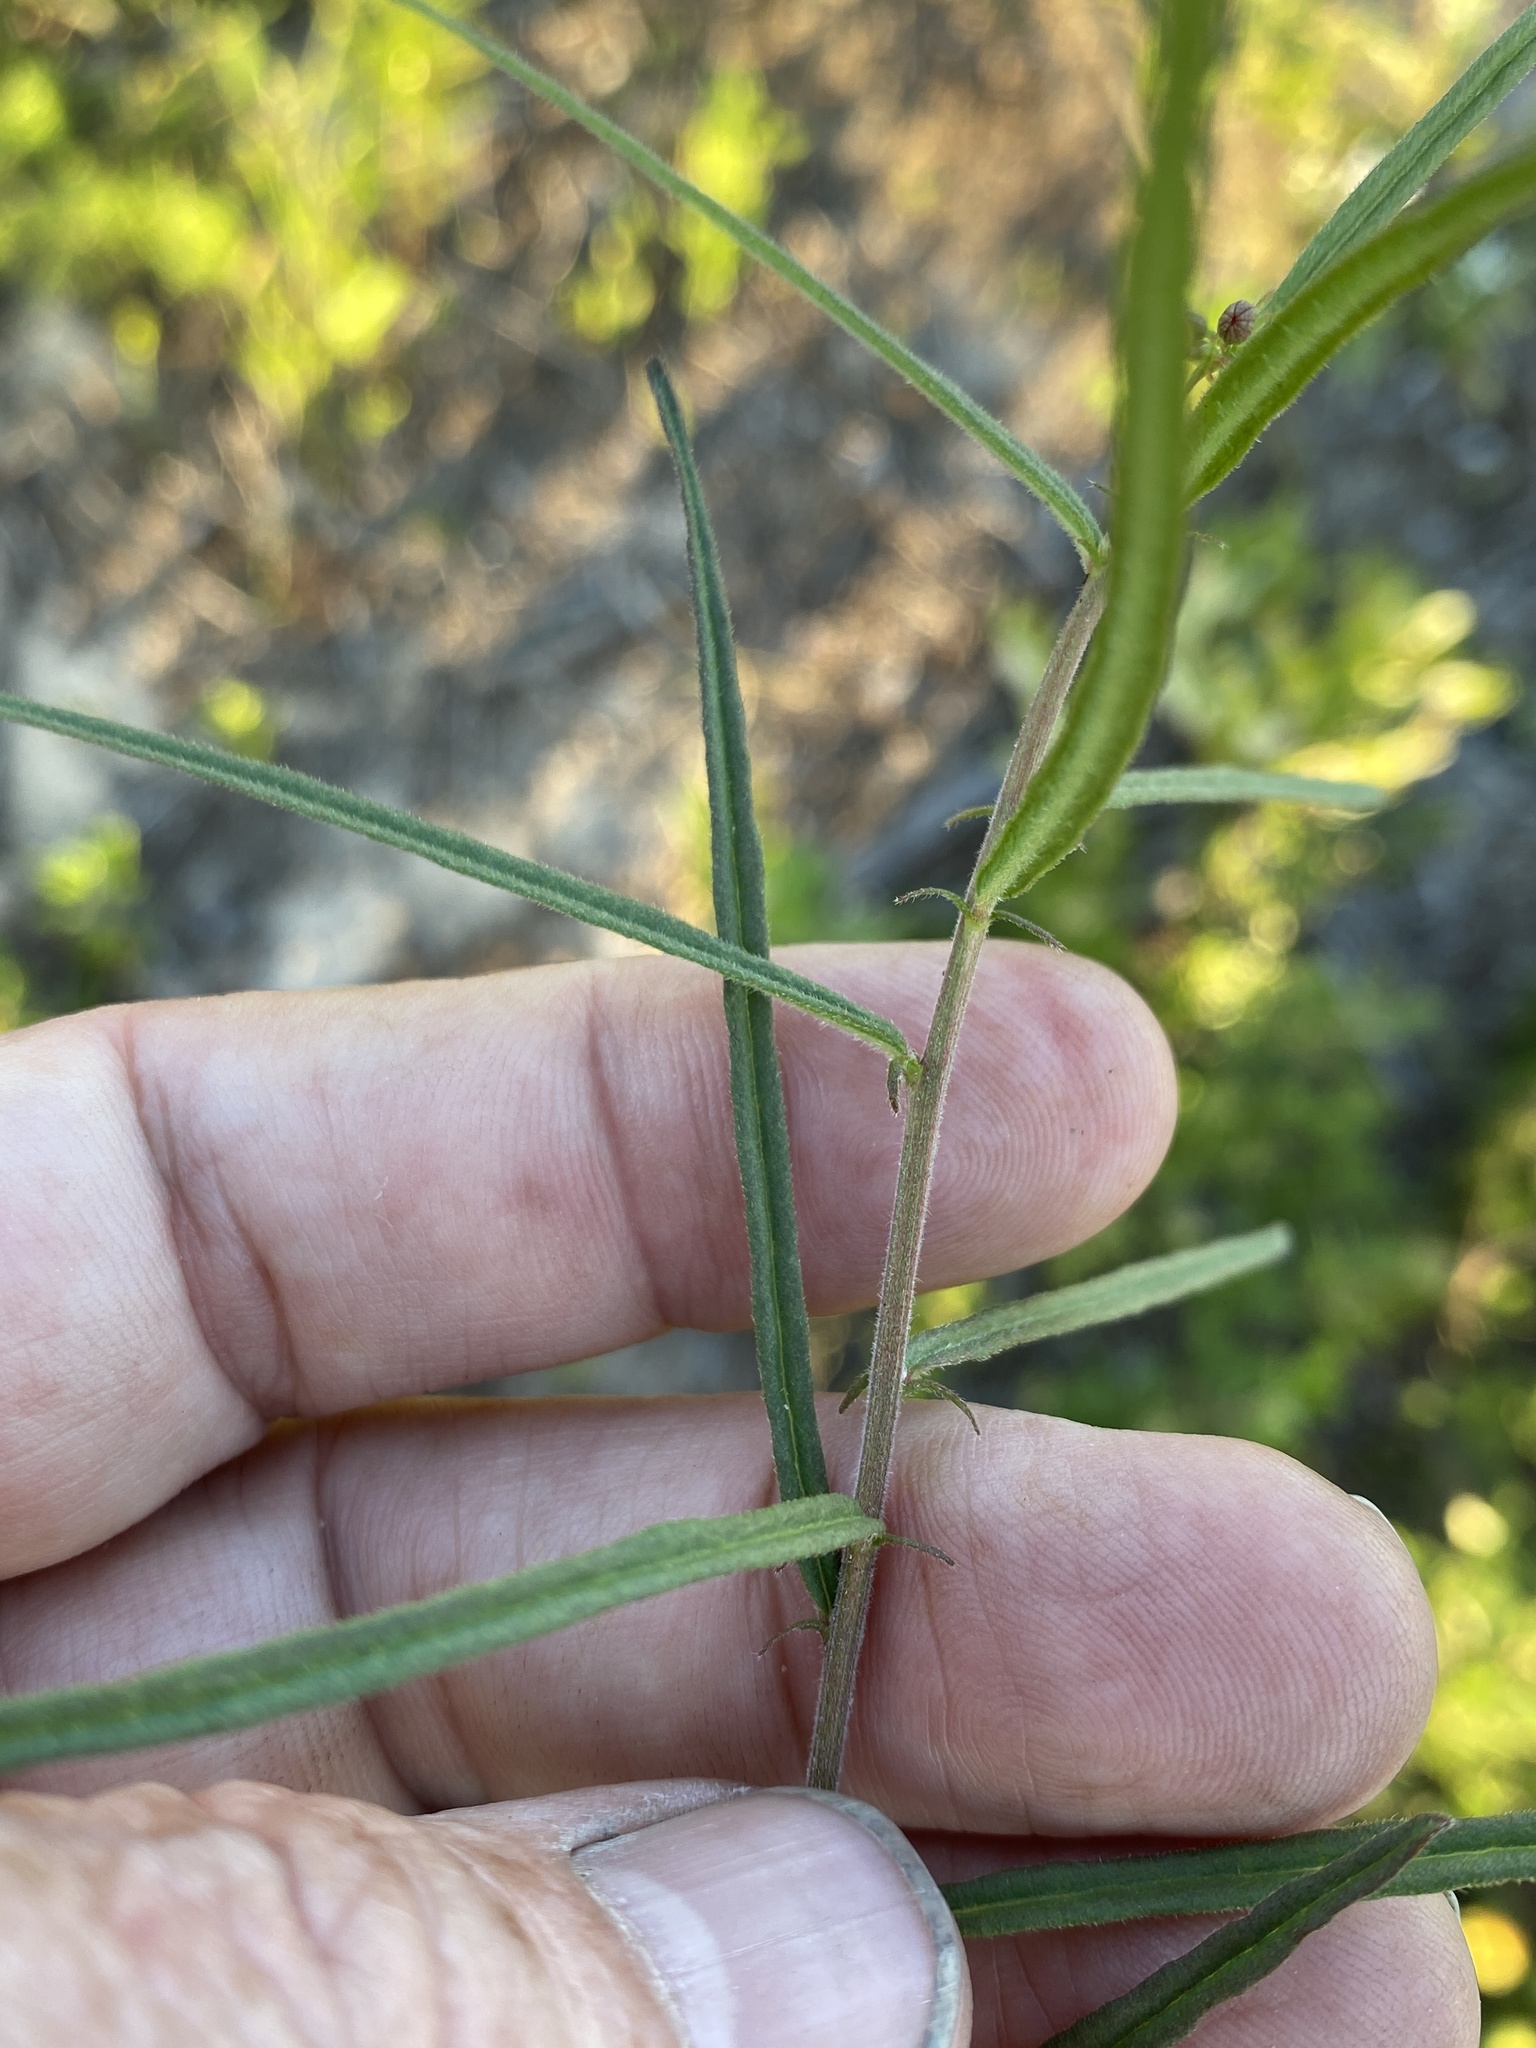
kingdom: Plantae
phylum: Tracheophyta
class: Magnoliopsida
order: Malpighiales
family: Euphorbiaceae
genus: Tragia
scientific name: Tragia urens
